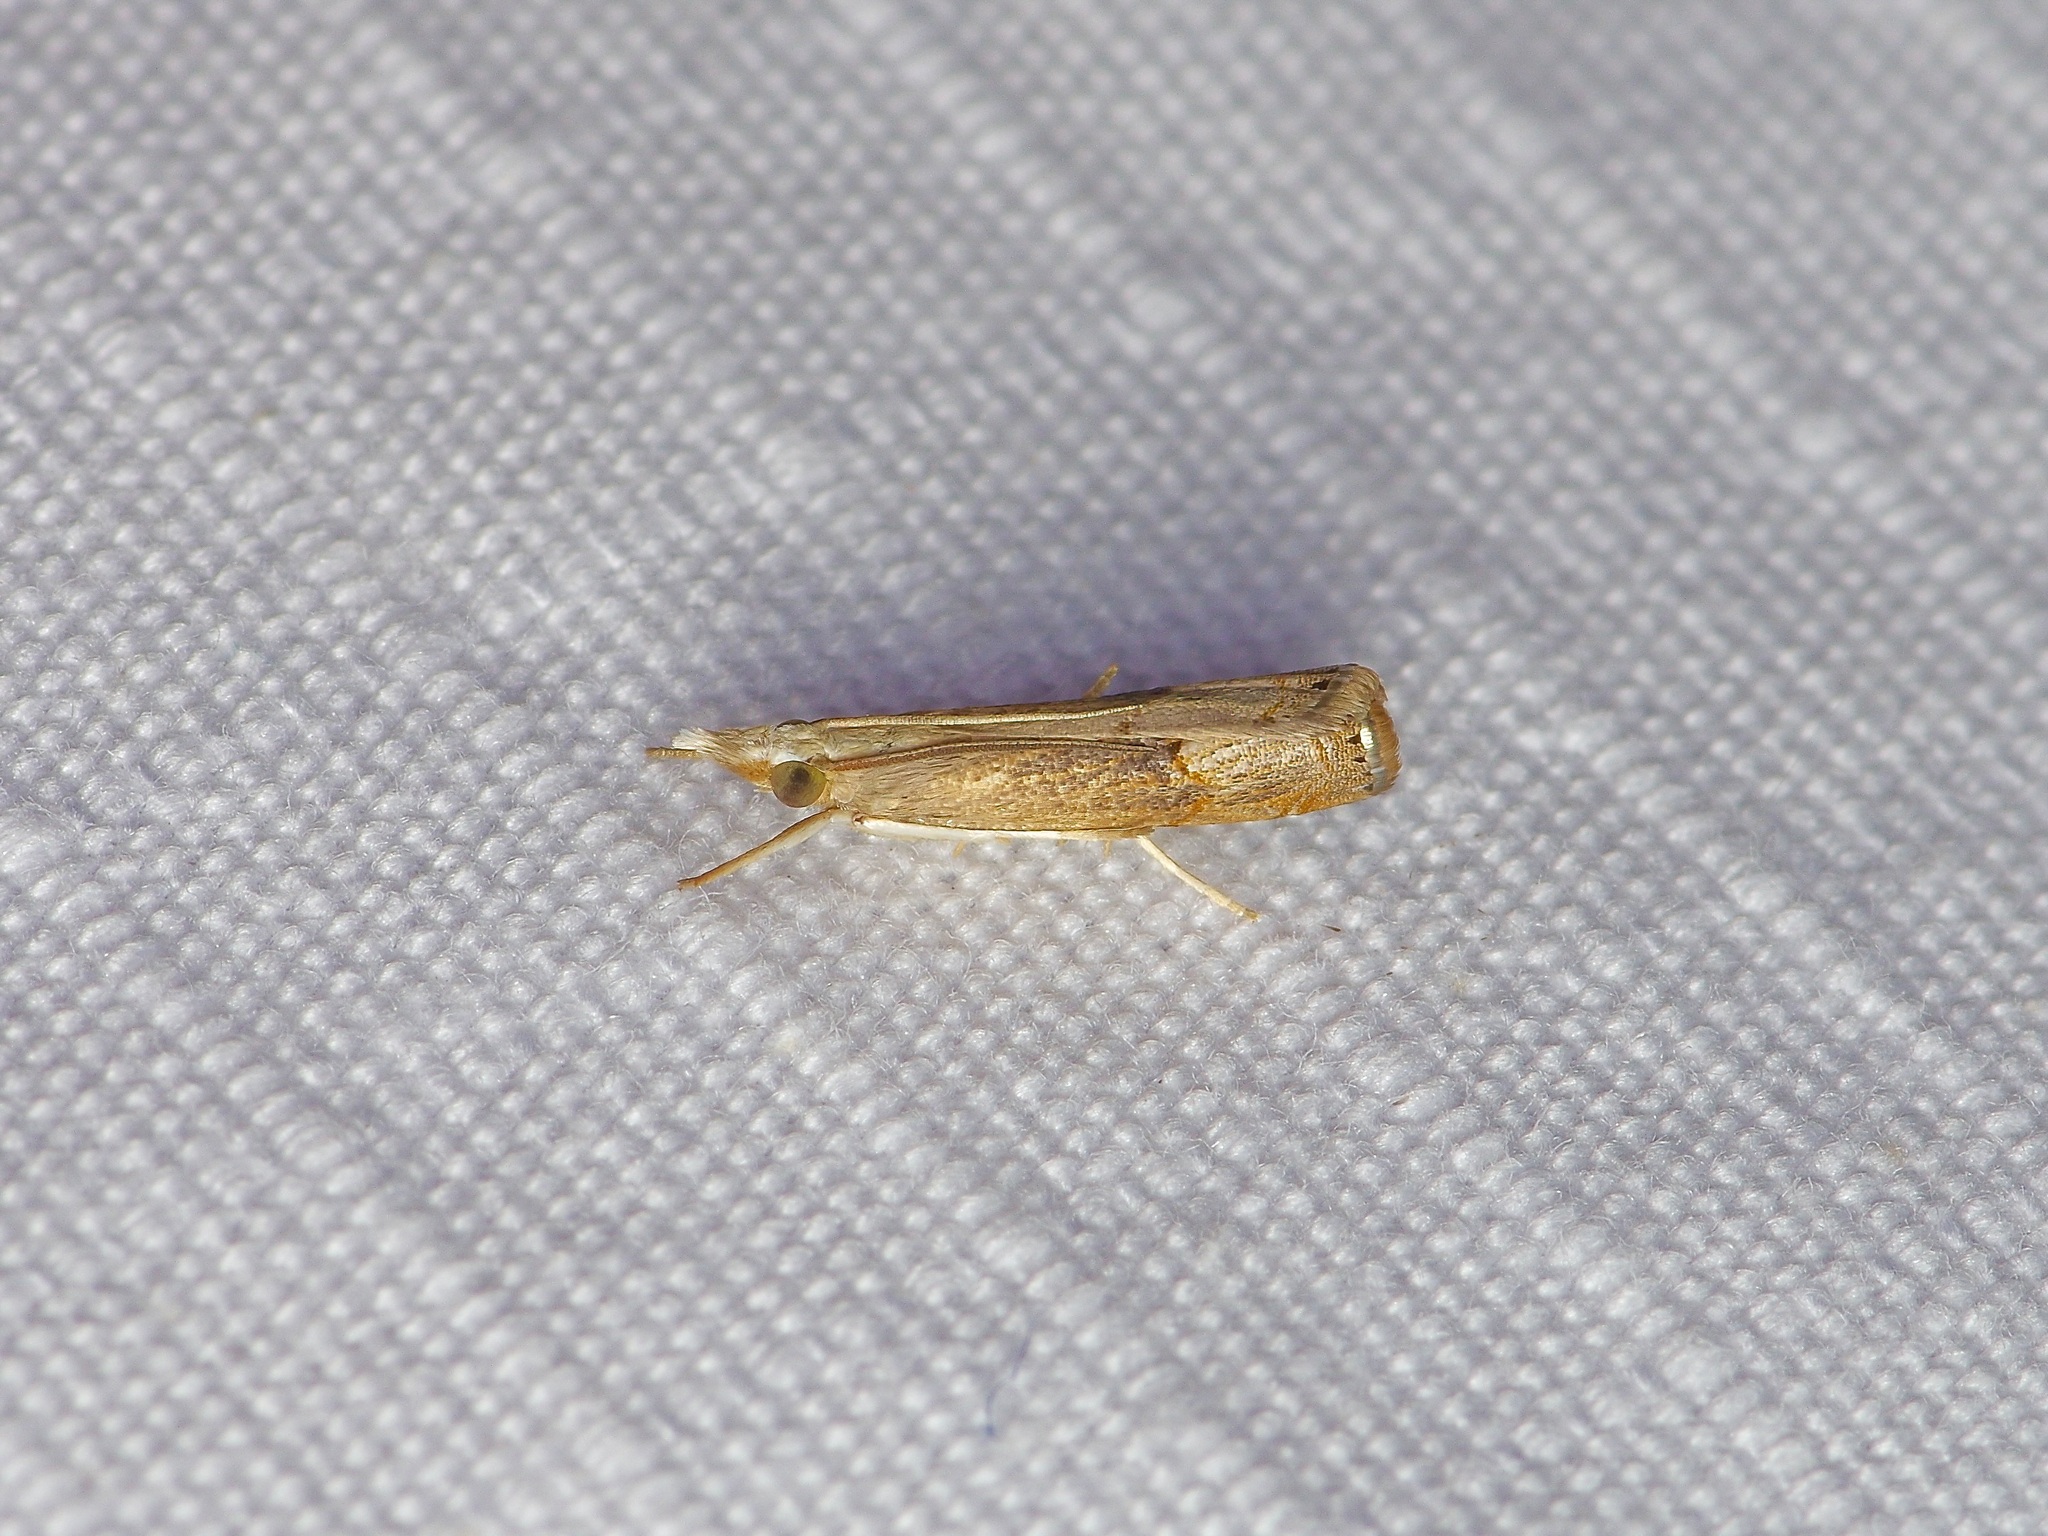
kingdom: Animalia
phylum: Arthropoda
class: Insecta
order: Lepidoptera
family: Crambidae
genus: Parapediasia
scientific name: Parapediasia teterellus
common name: Bluegrass webworm moth
